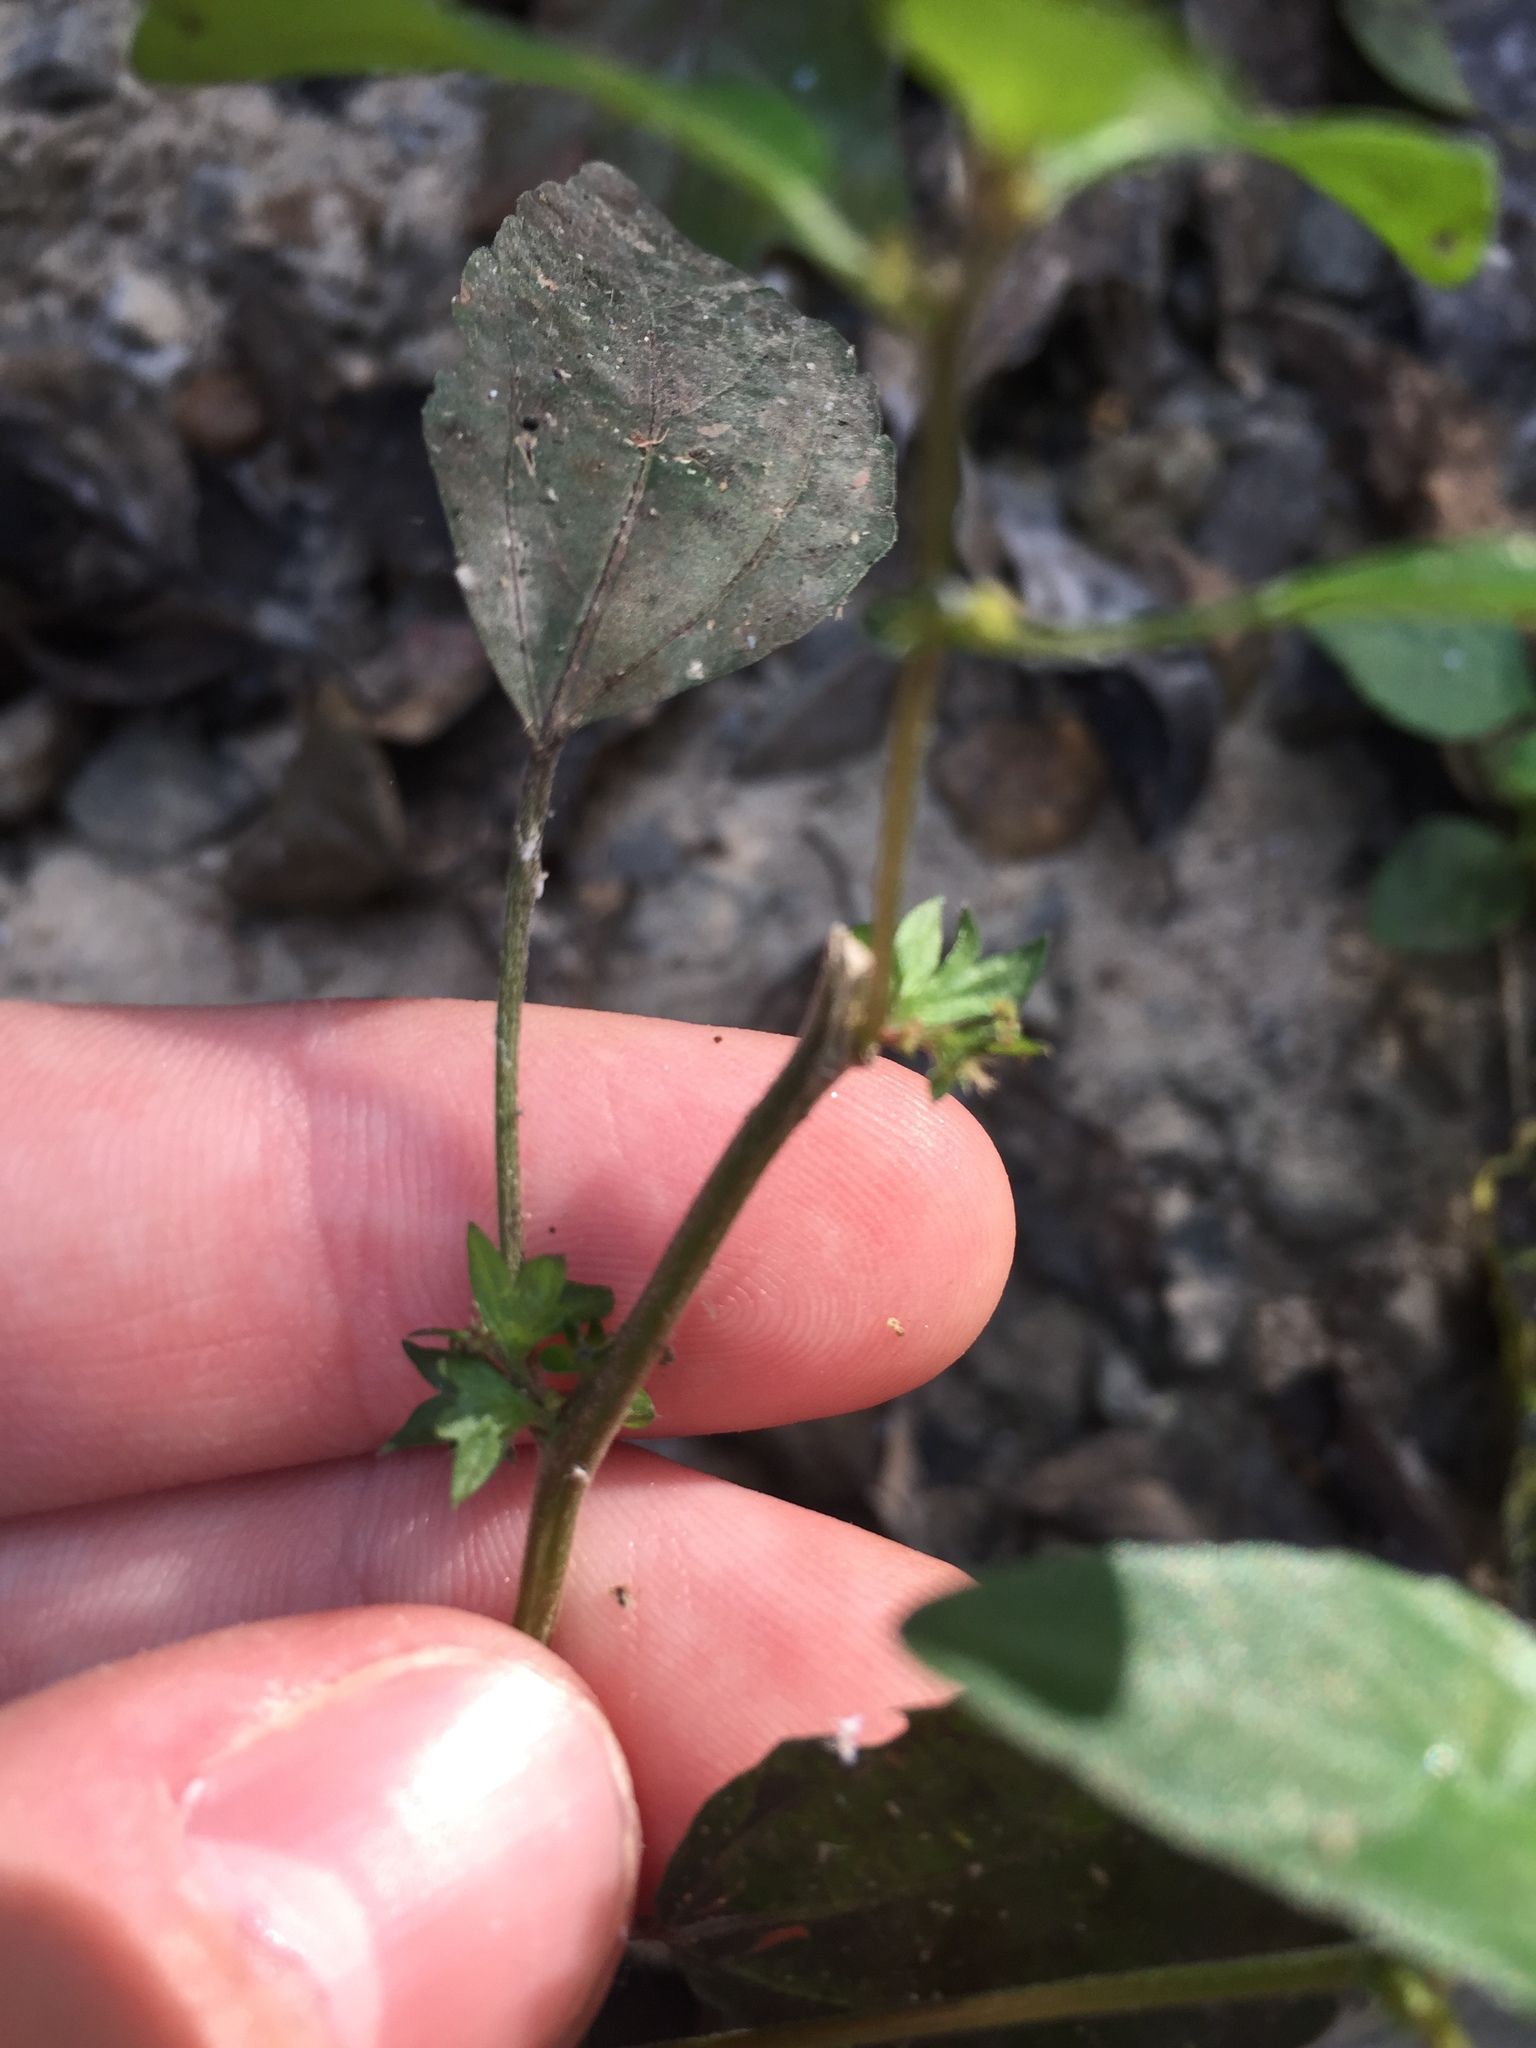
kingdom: Plantae
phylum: Tracheophyta
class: Magnoliopsida
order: Malpighiales
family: Euphorbiaceae
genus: Acalypha
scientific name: Acalypha rhomboidea
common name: Rhombic copperleaf
